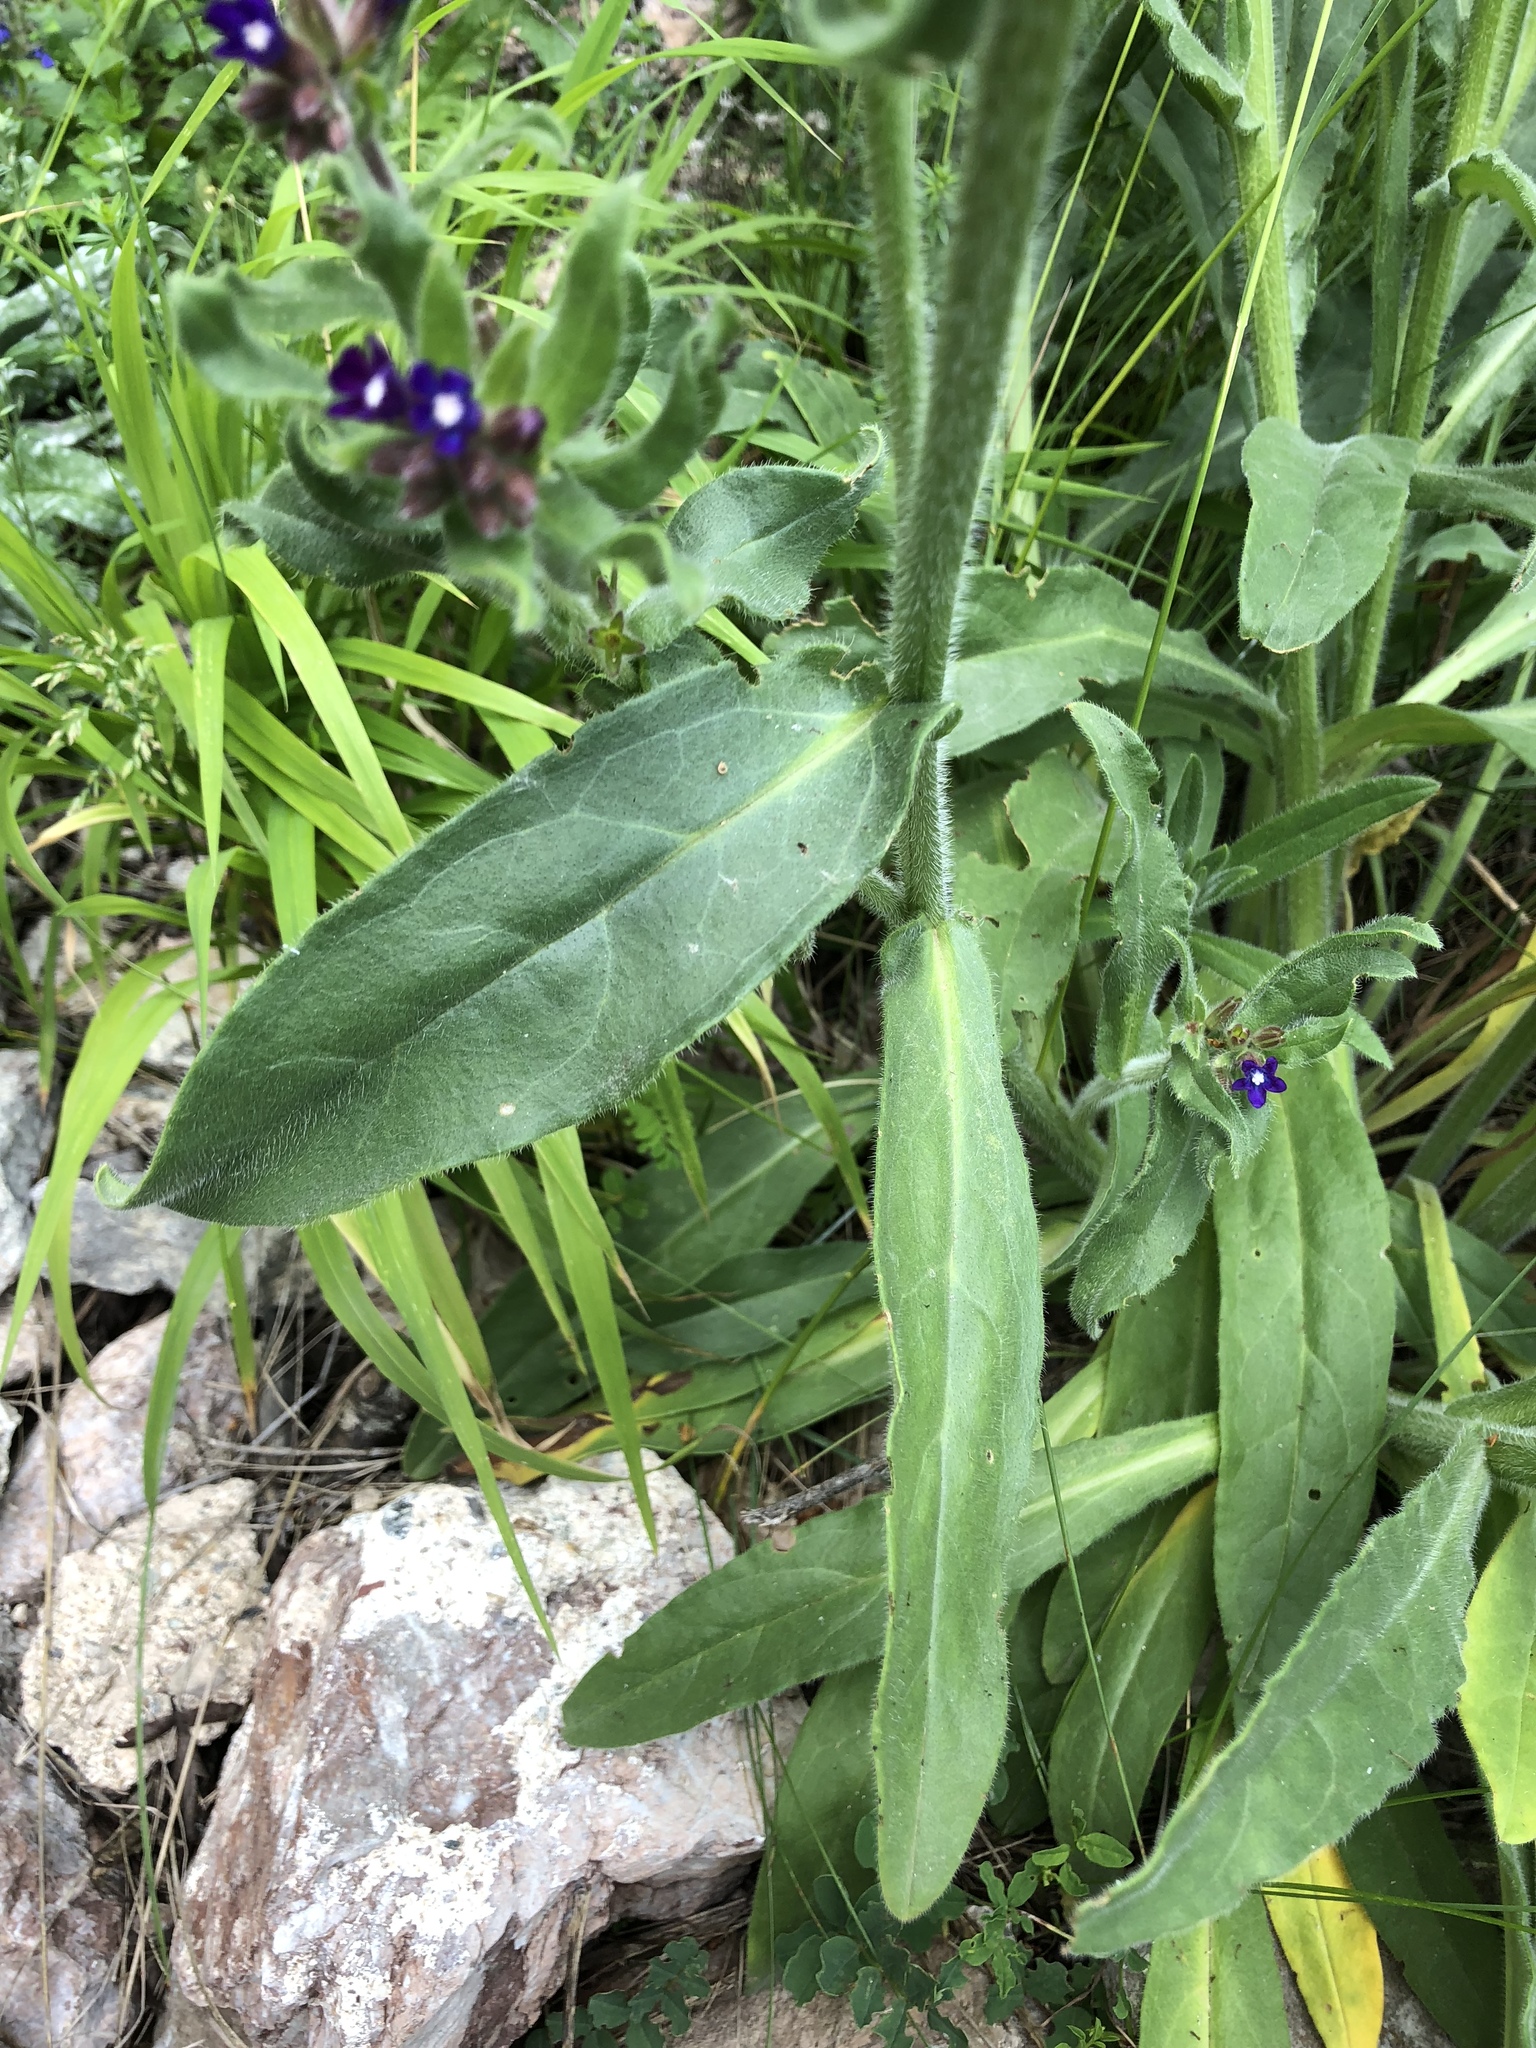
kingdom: Plantae
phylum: Tracheophyta
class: Magnoliopsida
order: Boraginales
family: Boraginaceae
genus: Anchusa
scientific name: Anchusa officinalis
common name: Alkanet
